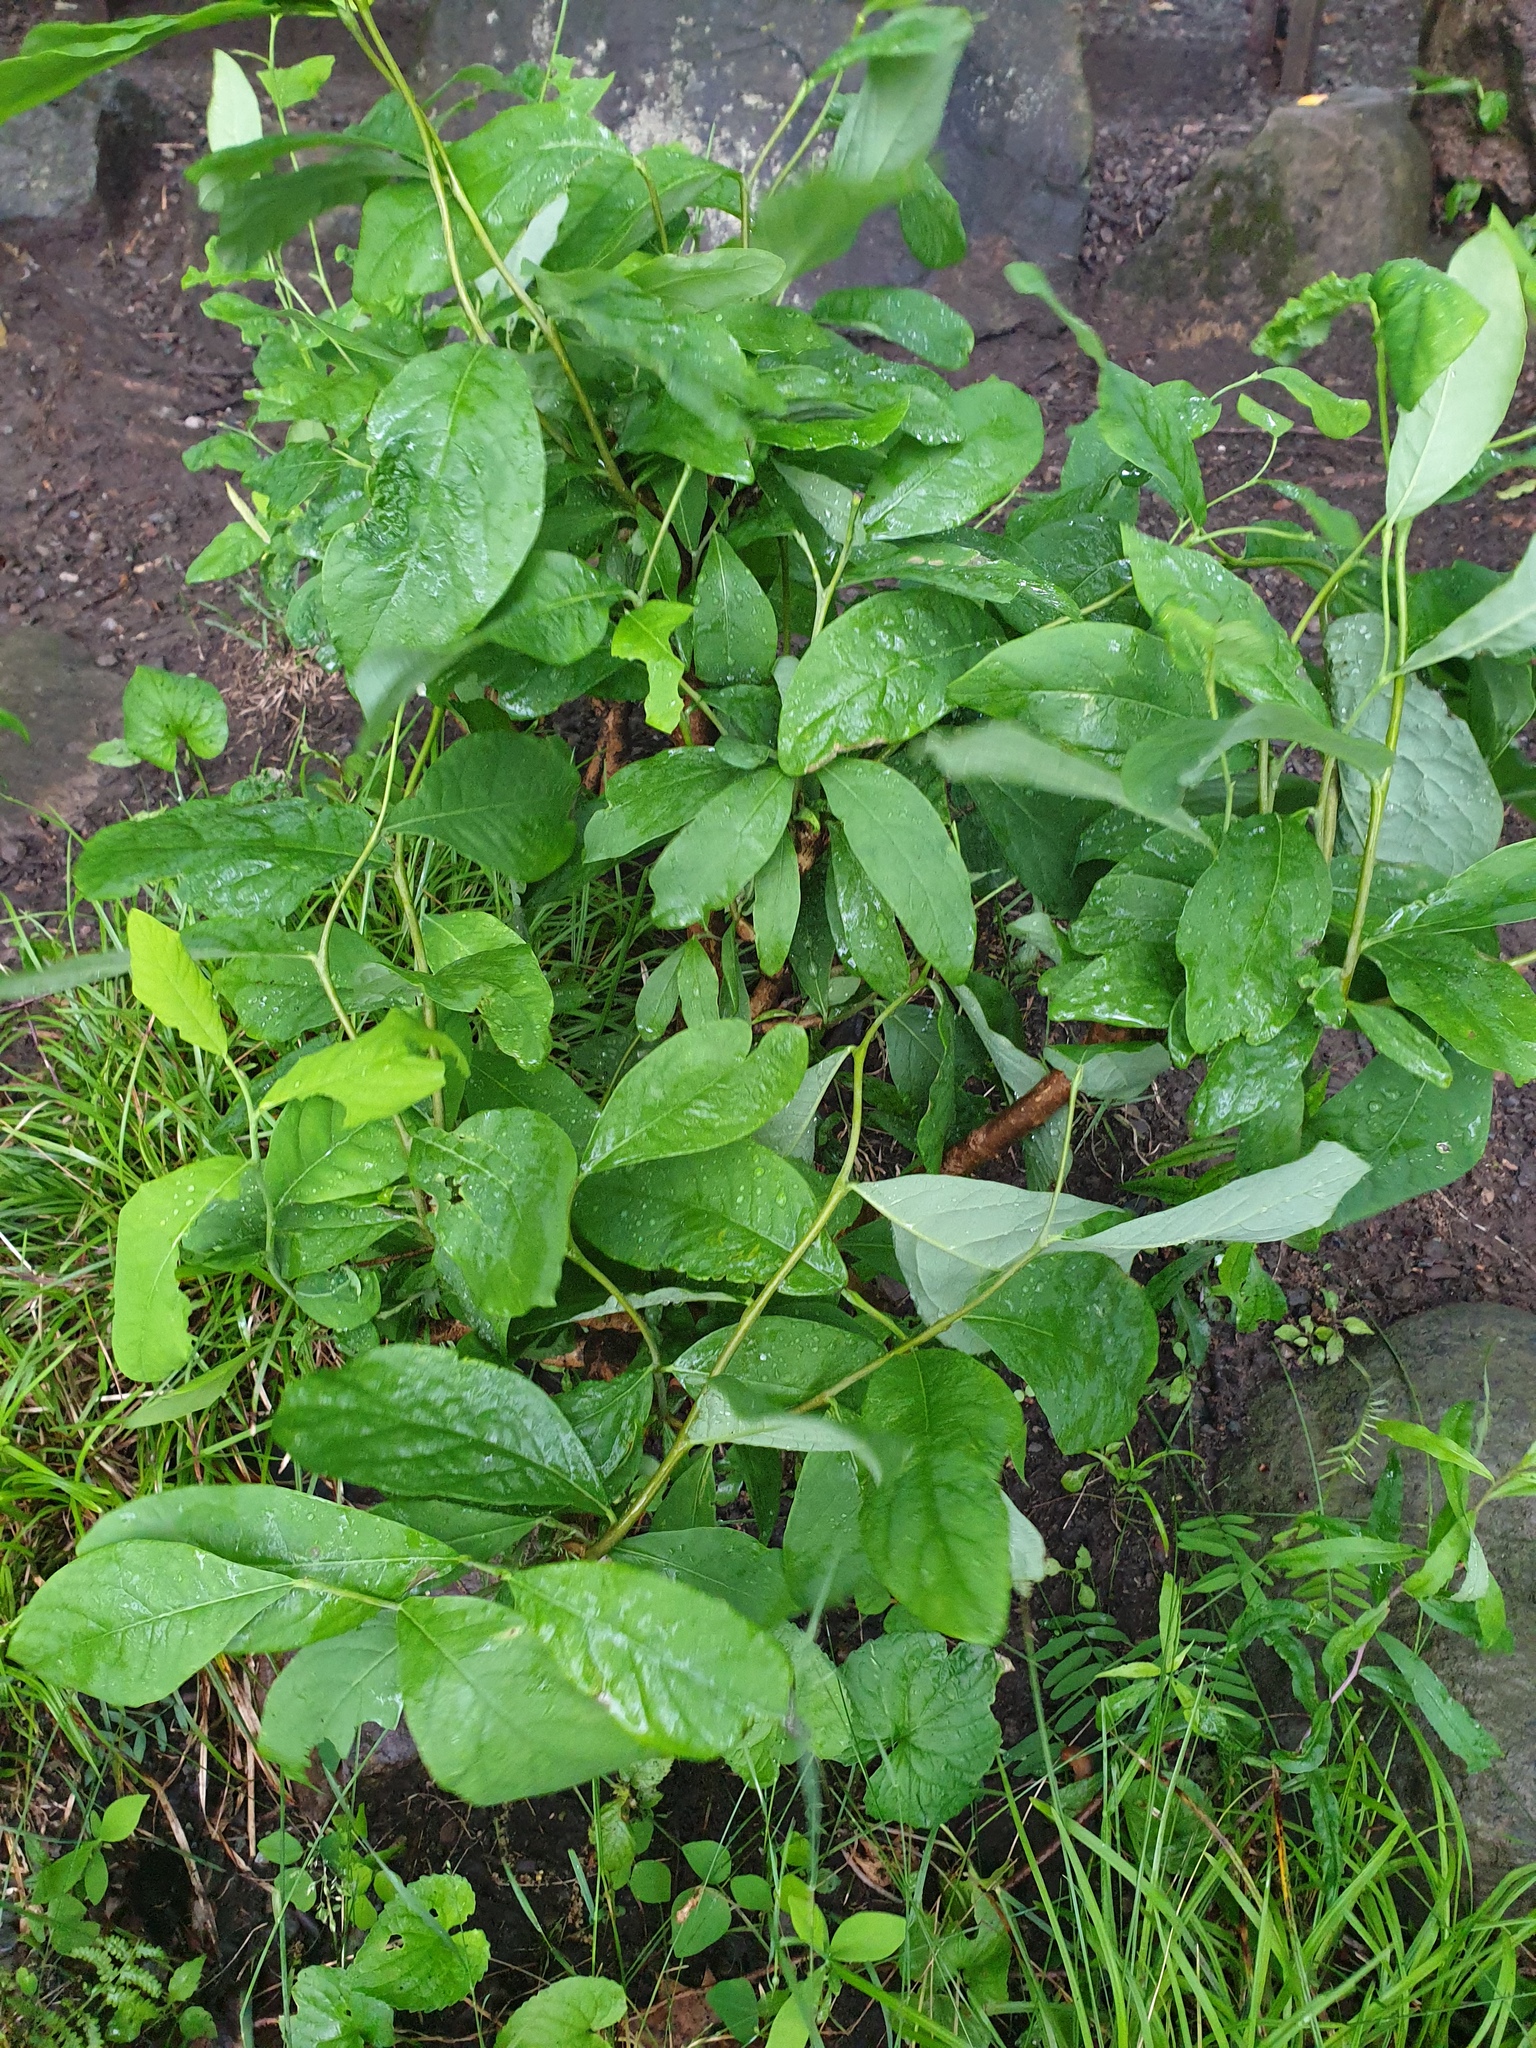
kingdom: Plantae
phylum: Tracheophyta
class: Magnoliopsida
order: Malvales
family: Thymelaeaceae
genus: Dirca
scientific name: Dirca palustris
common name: Leatherwood
